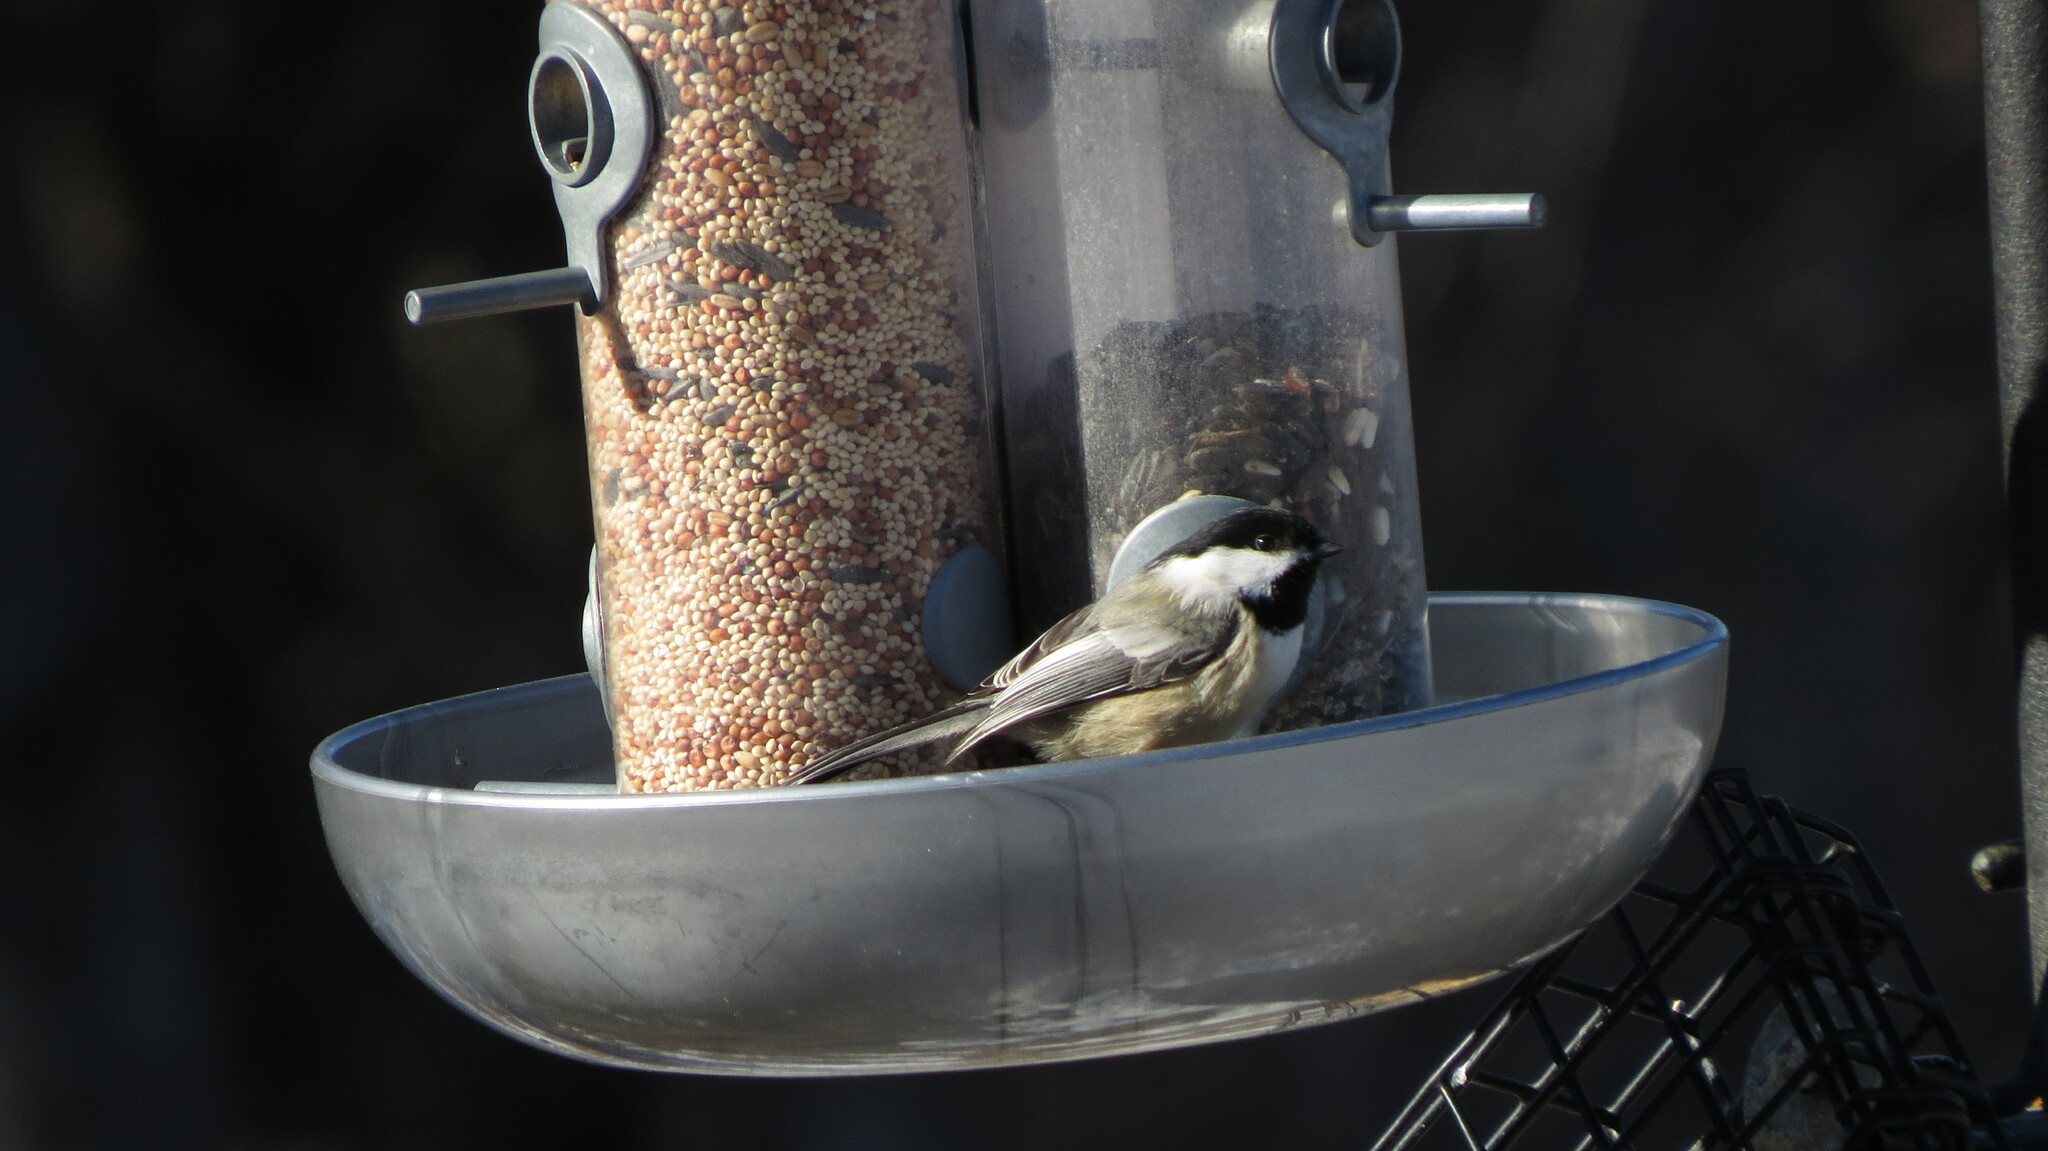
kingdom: Animalia
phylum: Chordata
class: Aves
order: Passeriformes
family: Paridae
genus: Poecile
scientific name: Poecile atricapillus
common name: Black-capped chickadee
